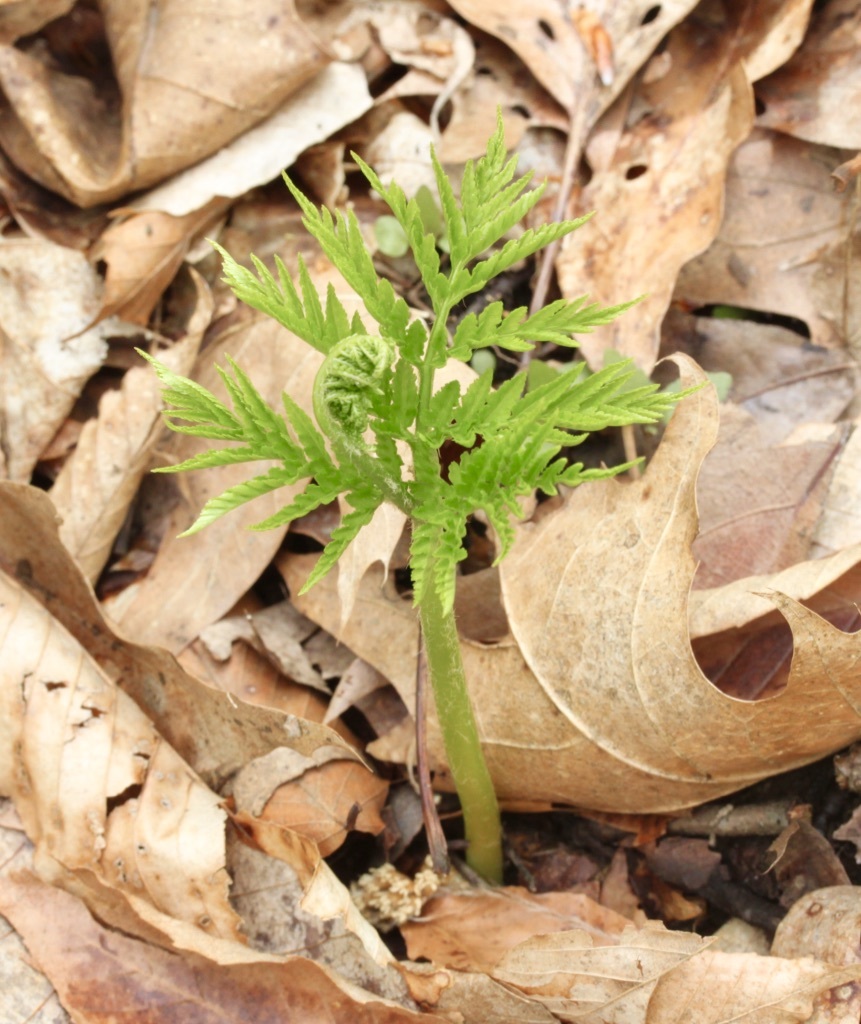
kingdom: Plantae
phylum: Tracheophyta
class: Polypodiopsida
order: Ophioglossales
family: Ophioglossaceae
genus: Botrypus
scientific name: Botrypus virginianus
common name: Common grapefern
